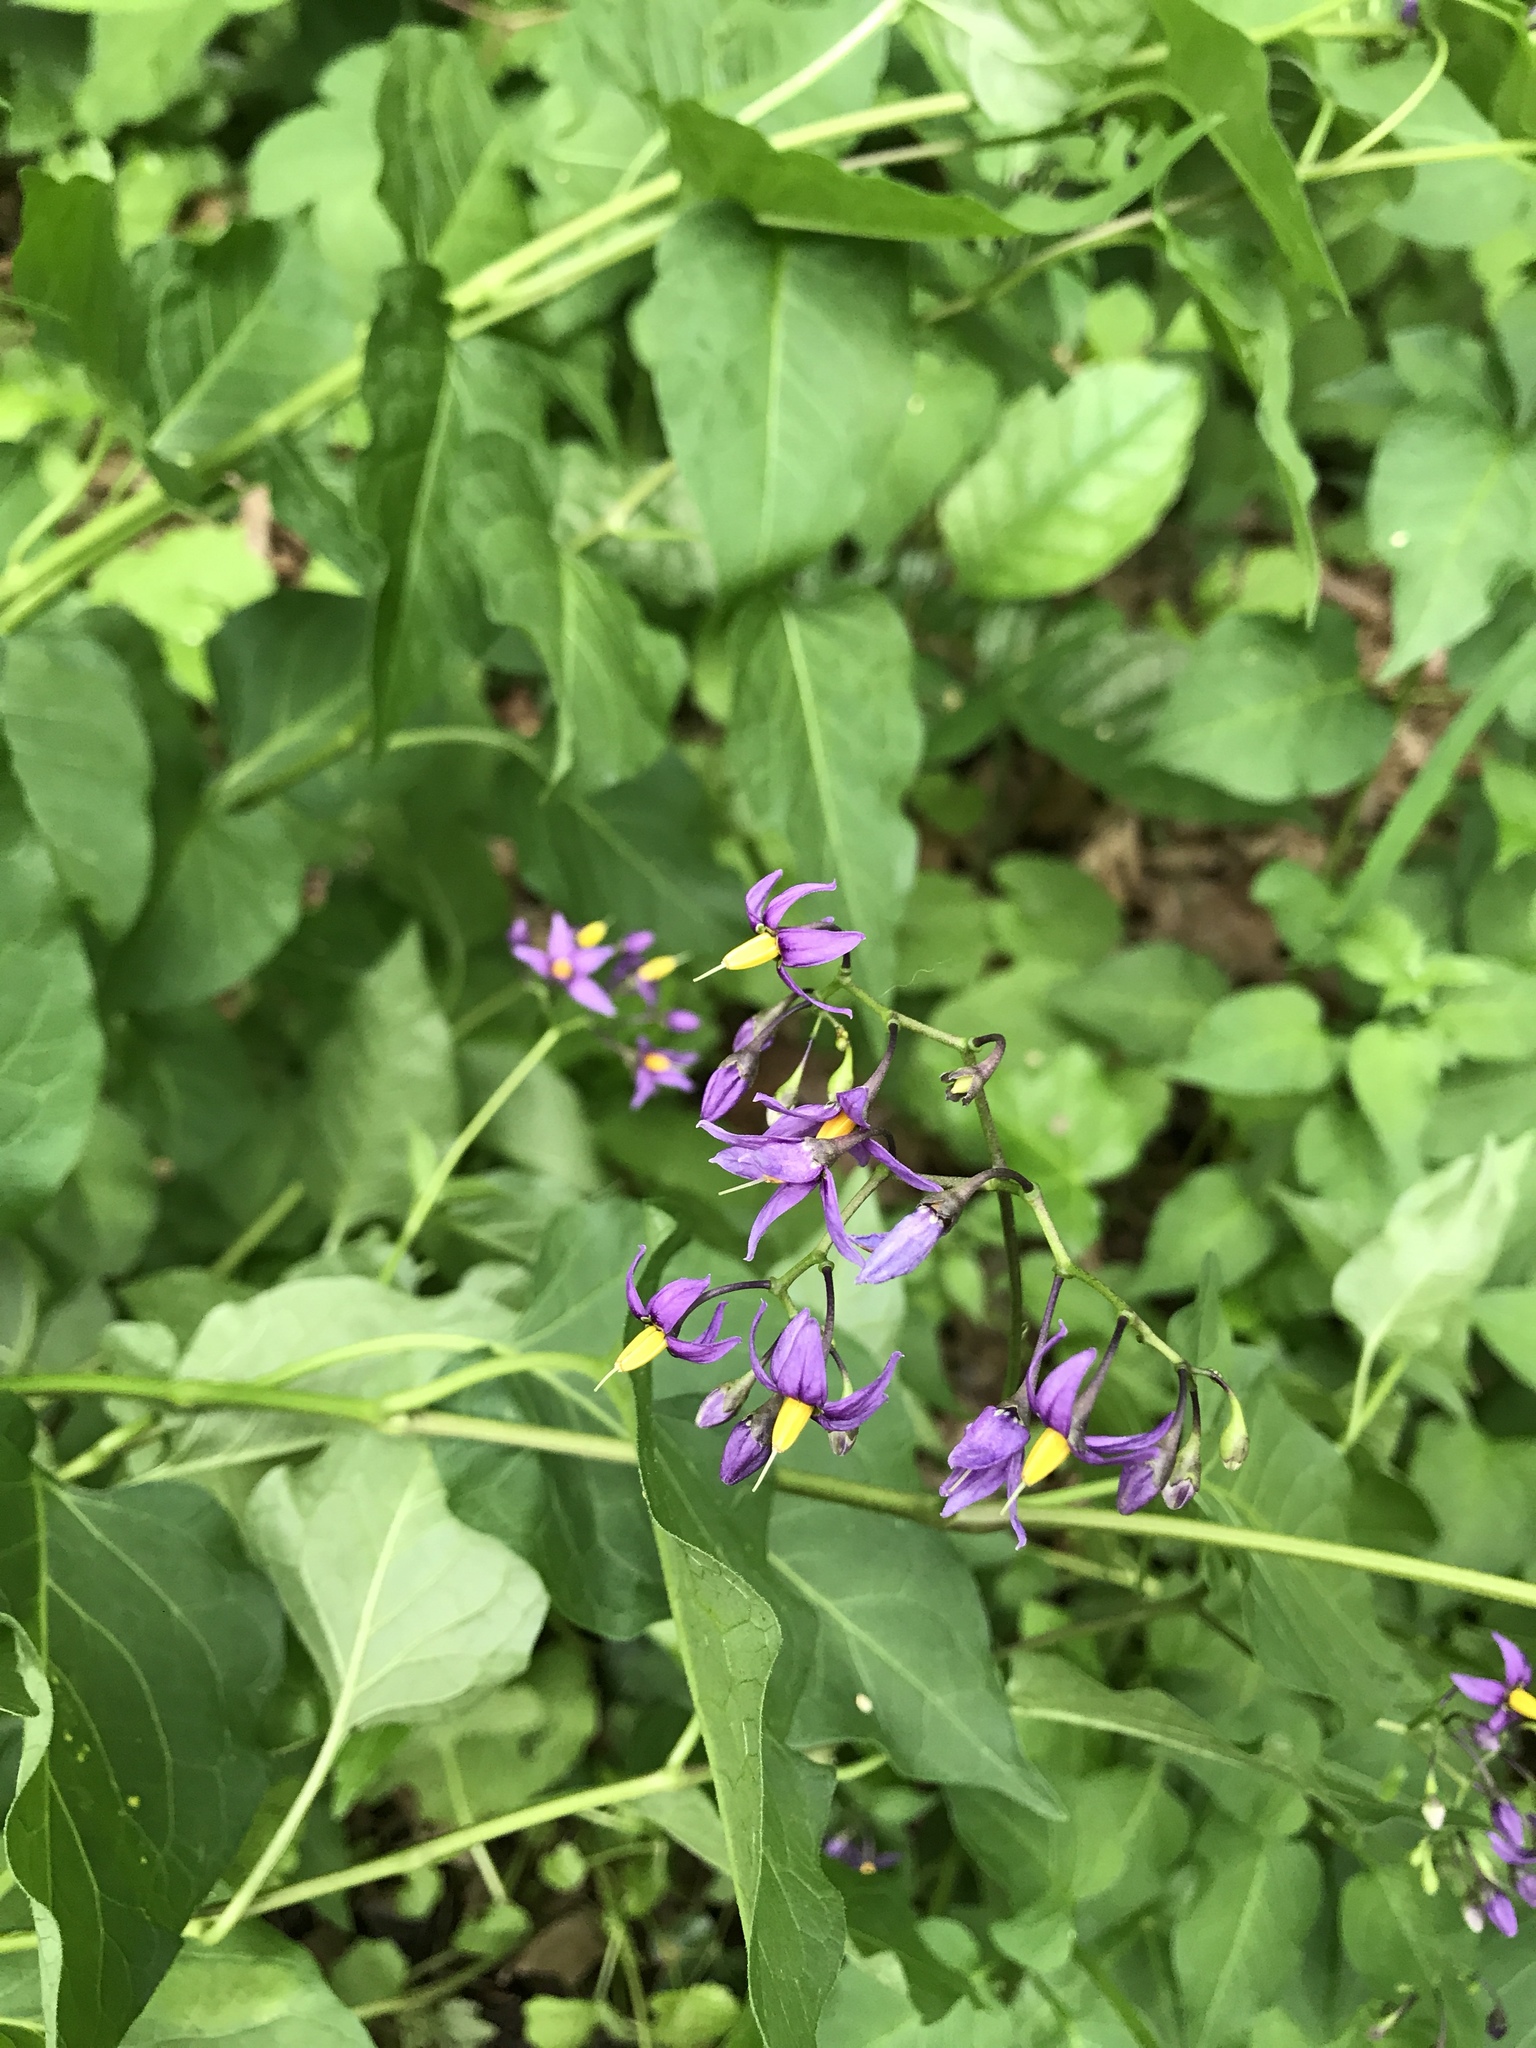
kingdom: Plantae
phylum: Tracheophyta
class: Magnoliopsida
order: Solanales
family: Solanaceae
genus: Solanum
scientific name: Solanum dulcamara
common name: Climbing nightshade
